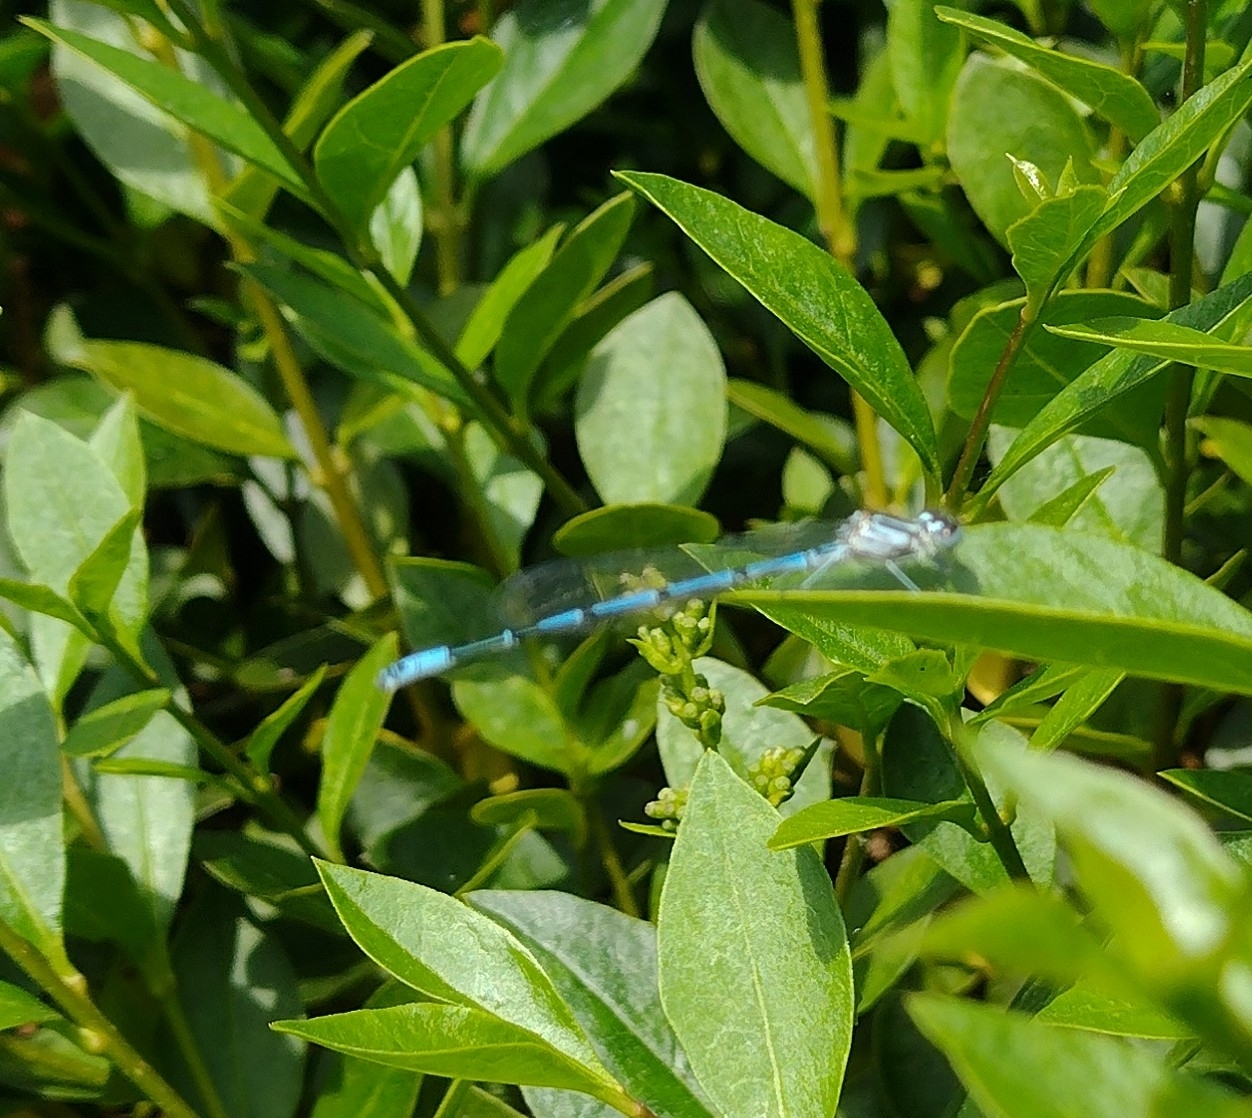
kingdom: Animalia
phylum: Arthropoda
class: Insecta
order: Odonata
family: Coenagrionidae
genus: Coenagrion
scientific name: Coenagrion puella
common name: Azure damselfly
